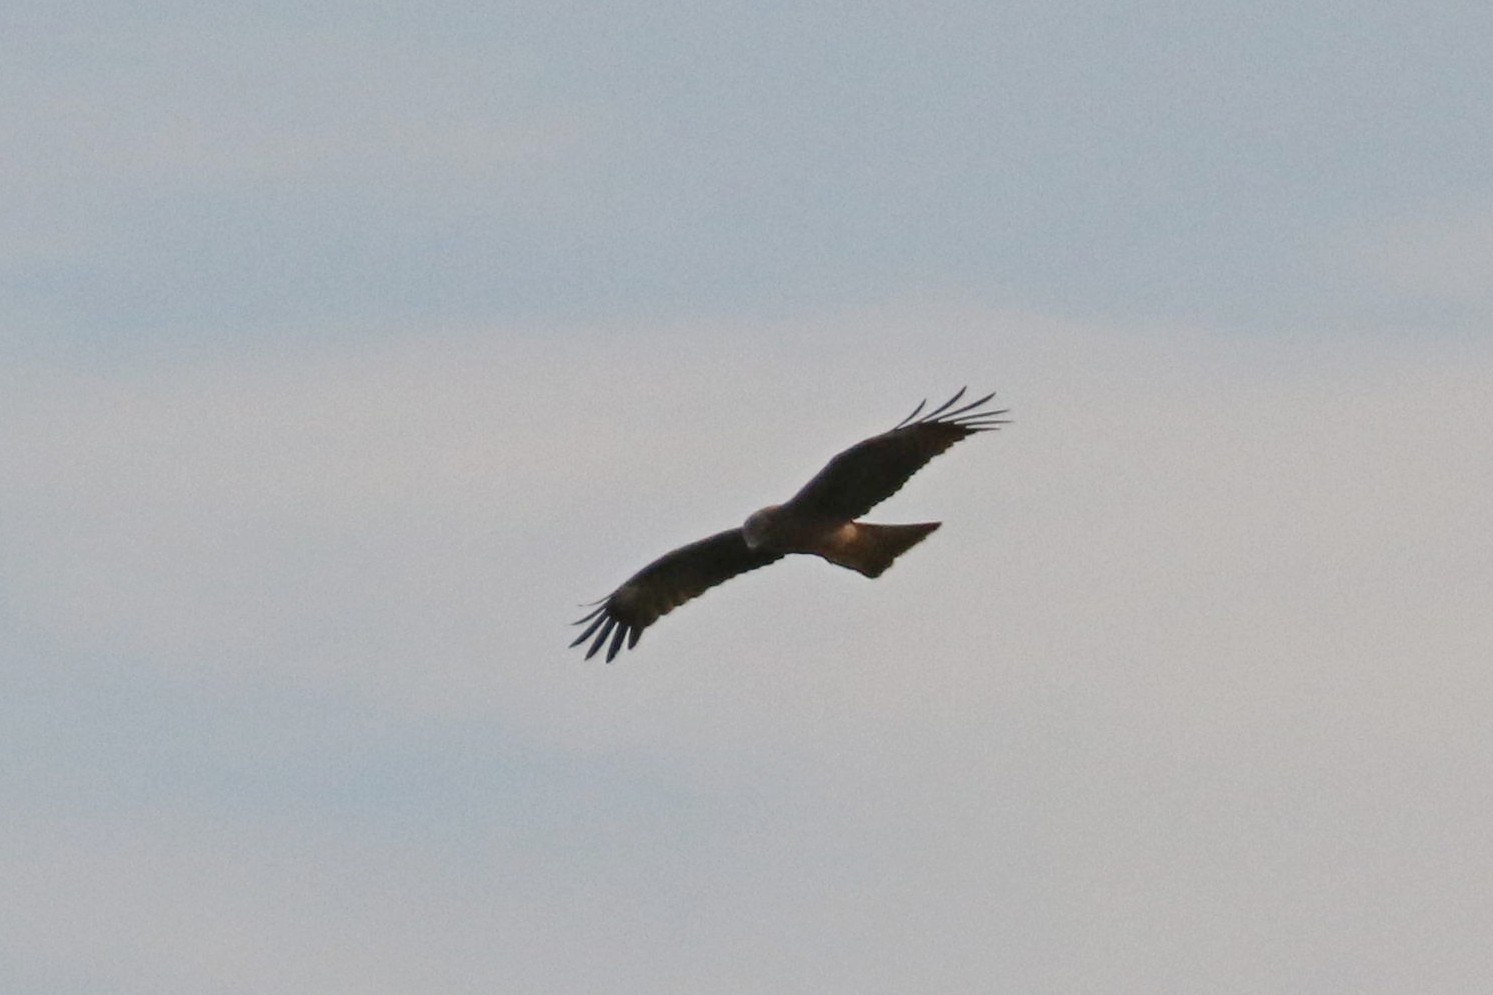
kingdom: Animalia
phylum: Chordata
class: Aves
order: Accipitriformes
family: Accipitridae
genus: Milvus
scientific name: Milvus migrans
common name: Black kite
